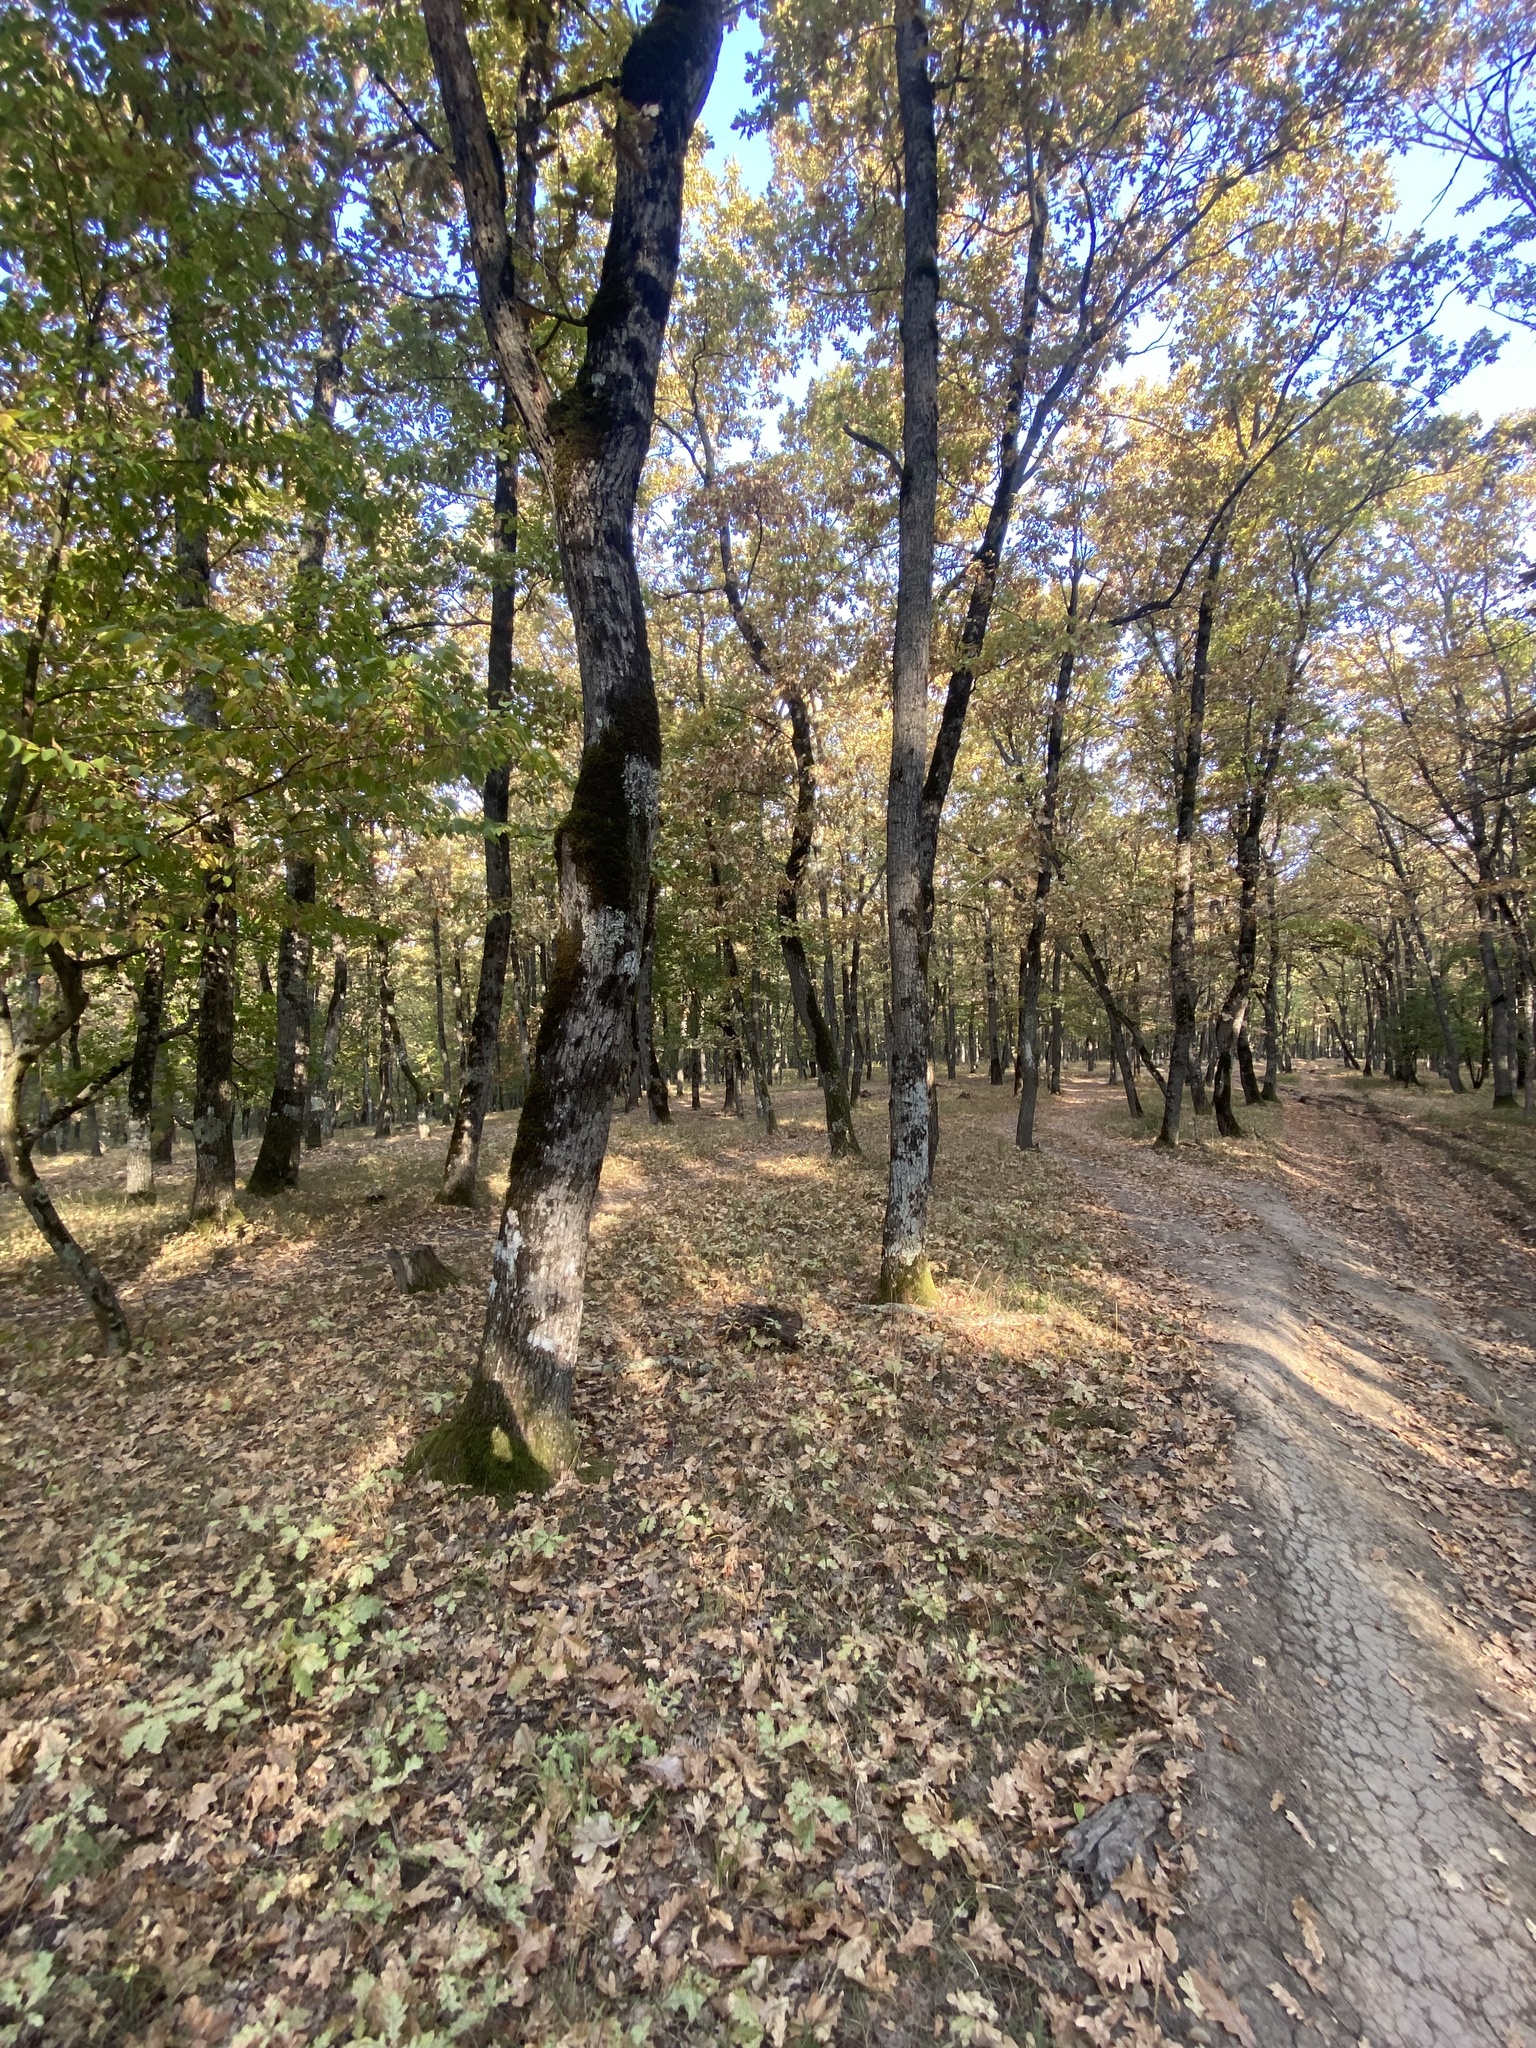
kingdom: Plantae
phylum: Tracheophyta
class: Liliopsida
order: Liliales
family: Colchicaceae
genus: Colchicum
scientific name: Colchicum umbrosum
